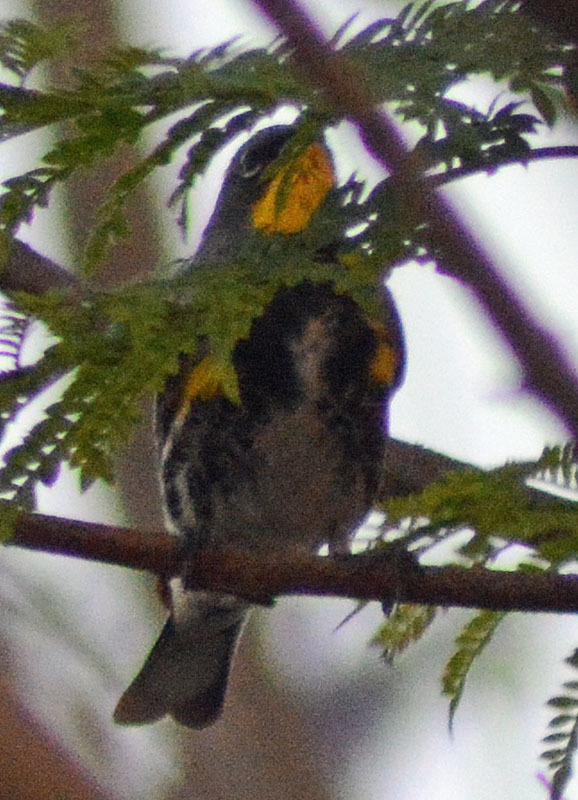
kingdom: Animalia
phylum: Chordata
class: Aves
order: Passeriformes
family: Parulidae
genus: Setophaga
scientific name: Setophaga auduboni
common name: Audubon's warbler
